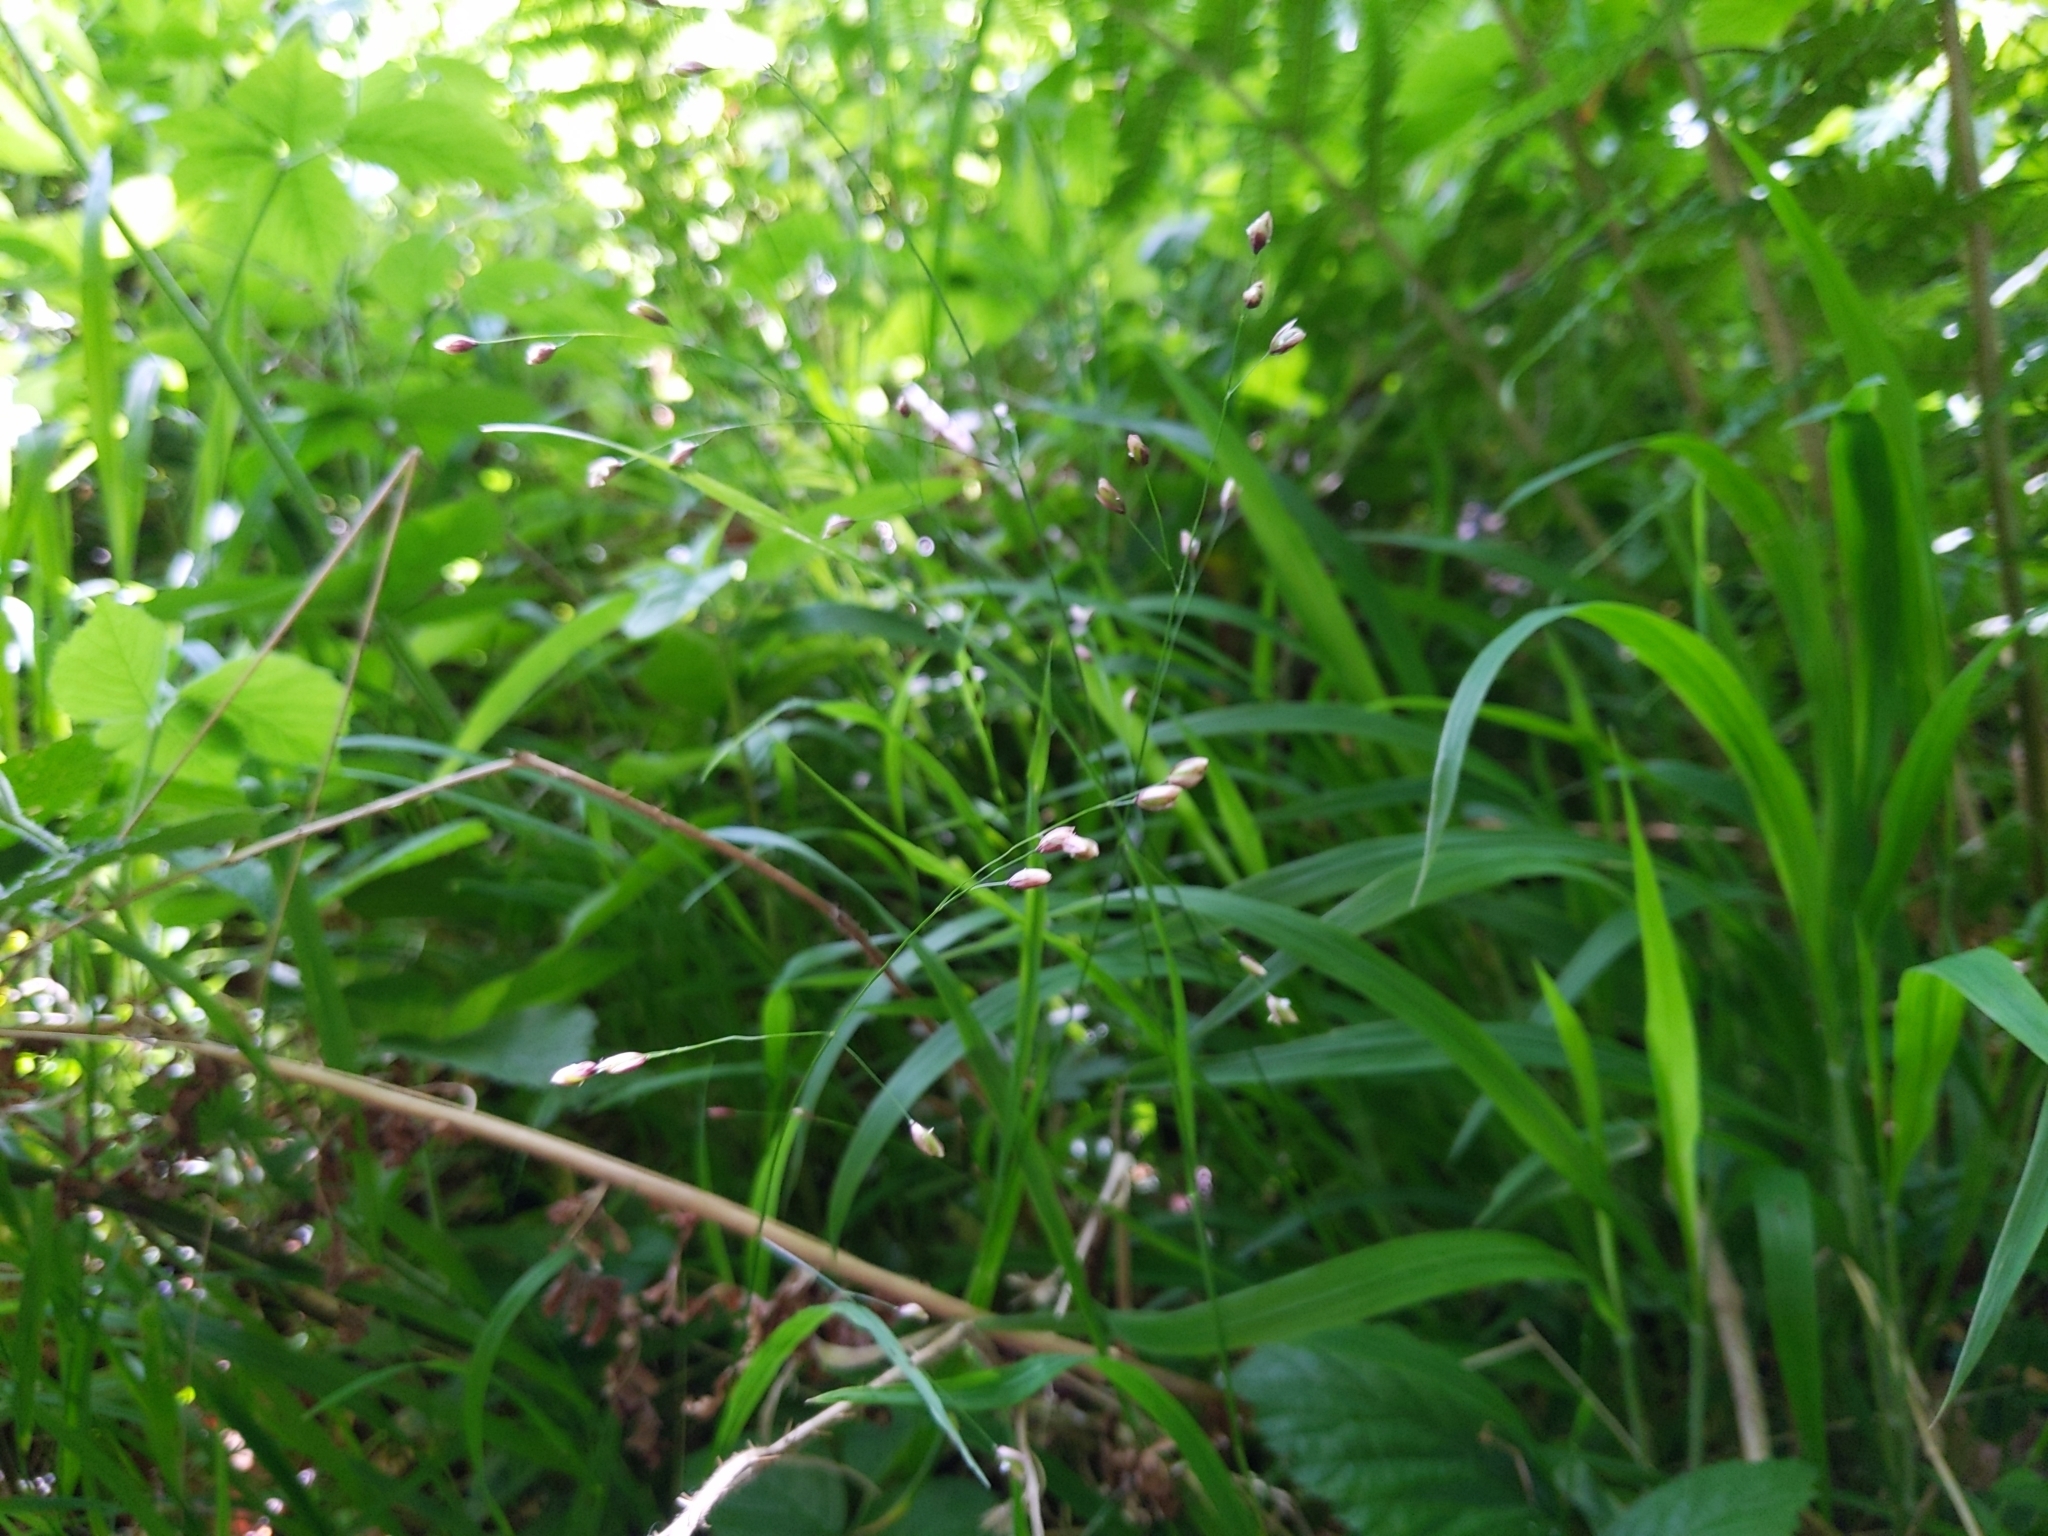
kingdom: Plantae
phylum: Tracheophyta
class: Liliopsida
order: Poales
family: Poaceae
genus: Melica
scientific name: Melica uniflora
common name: Wood melick
